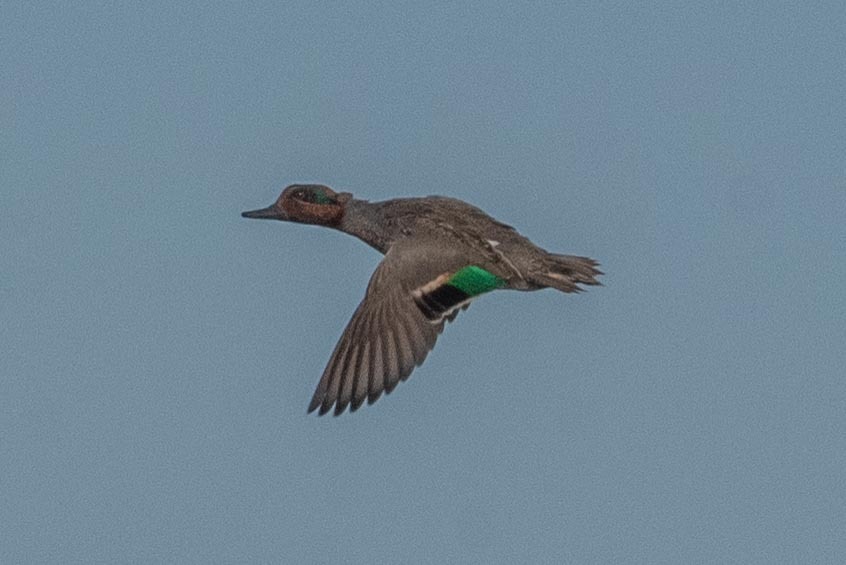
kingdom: Animalia
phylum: Chordata
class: Aves
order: Anseriformes
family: Anatidae
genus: Anas
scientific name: Anas crecca
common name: Eurasian teal
